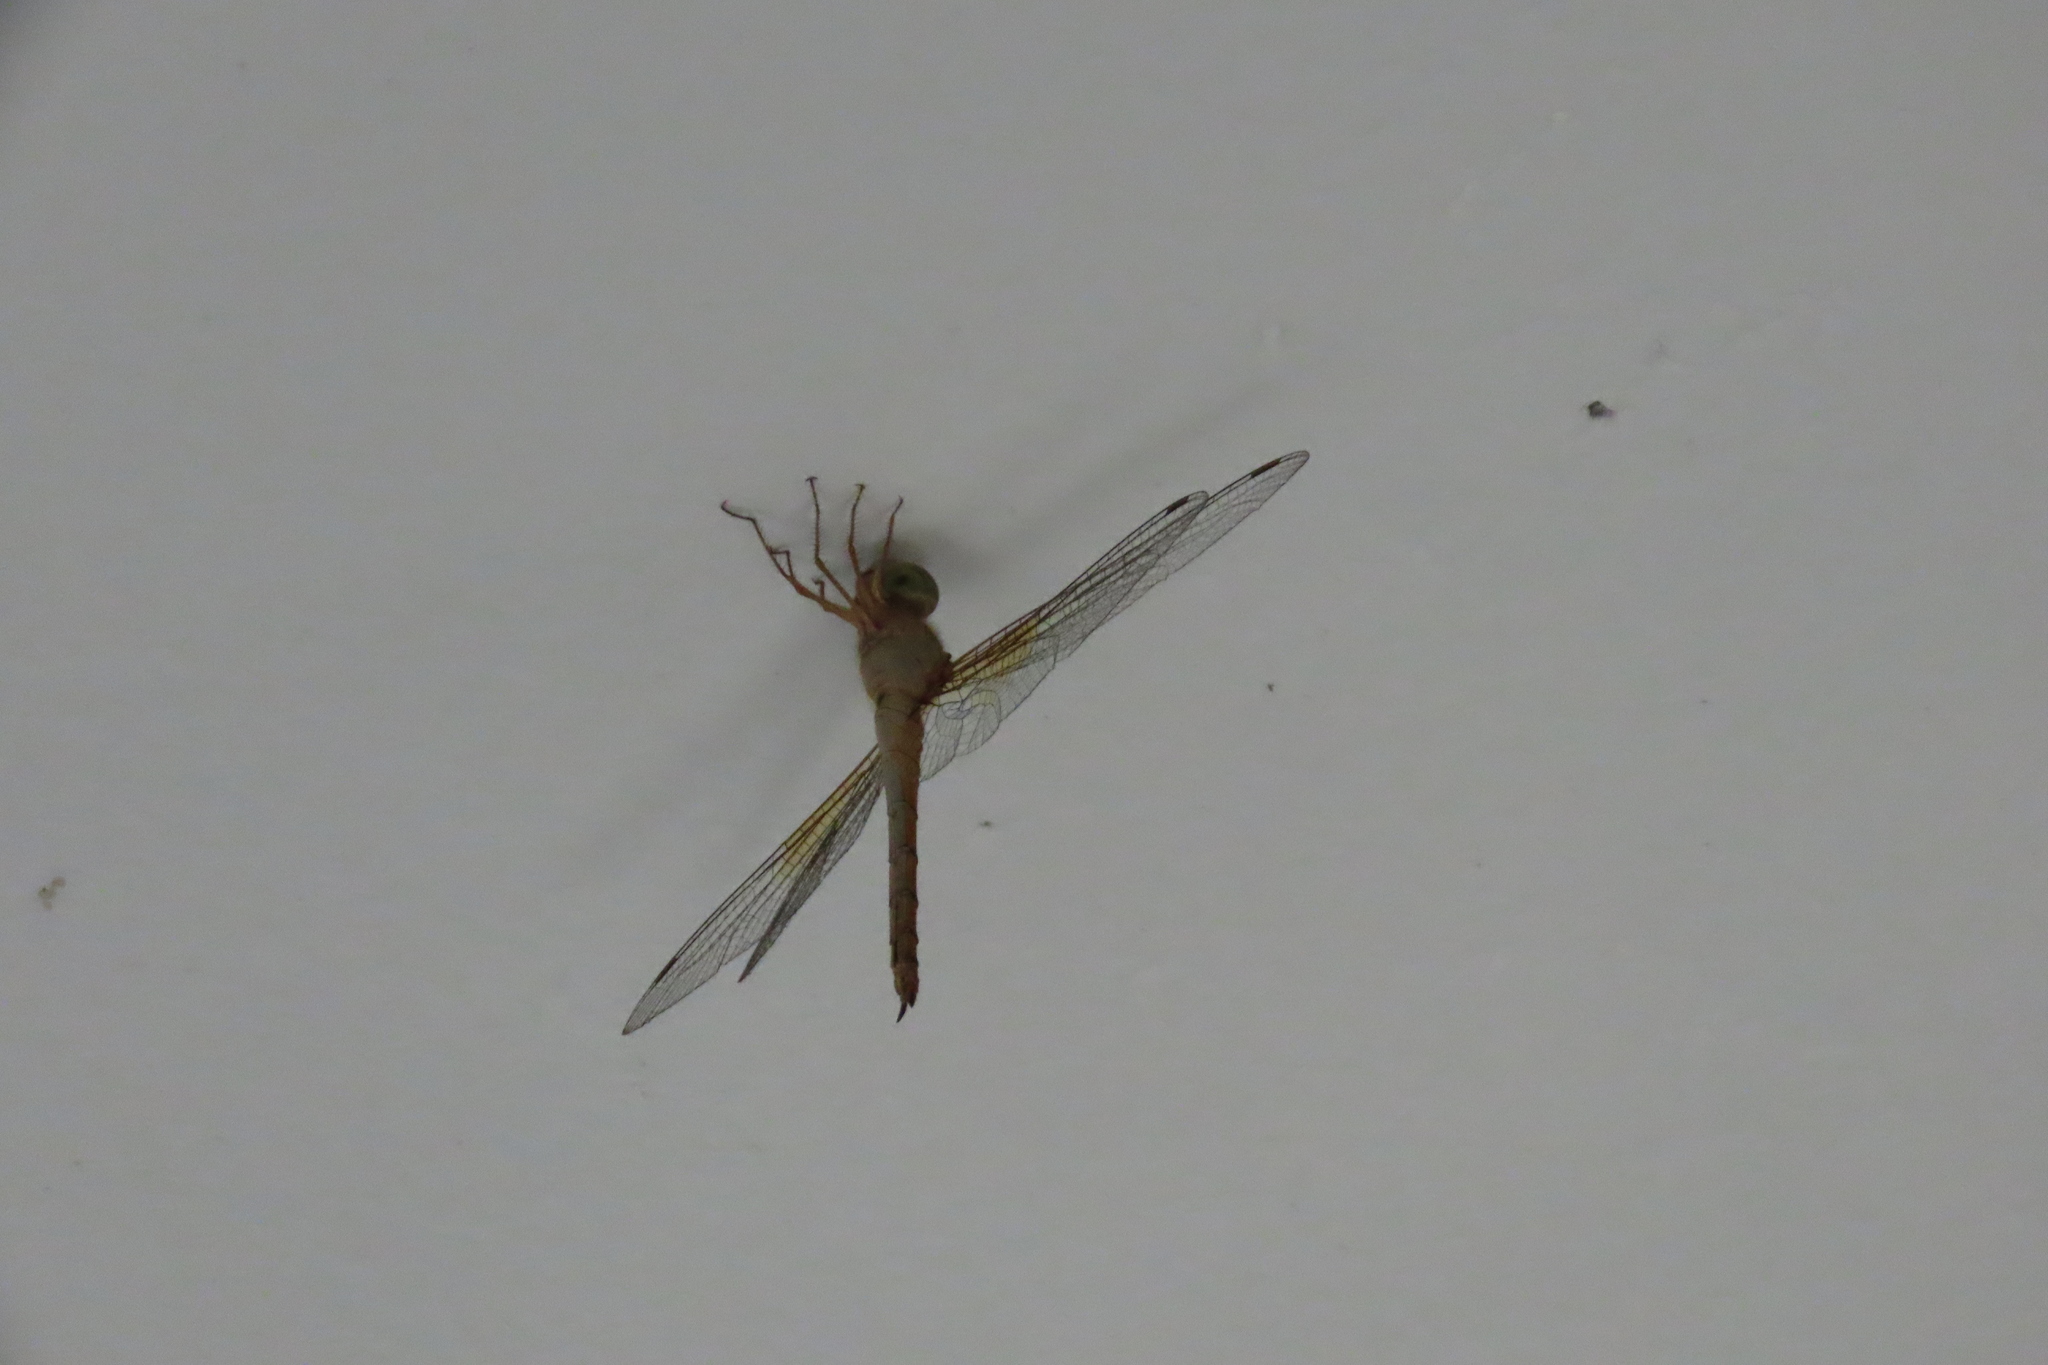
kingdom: Animalia
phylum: Arthropoda
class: Insecta
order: Odonata
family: Libellulidae
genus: Tholymis
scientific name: Tholymis tillarga
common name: Coral-tailed cloud wing
